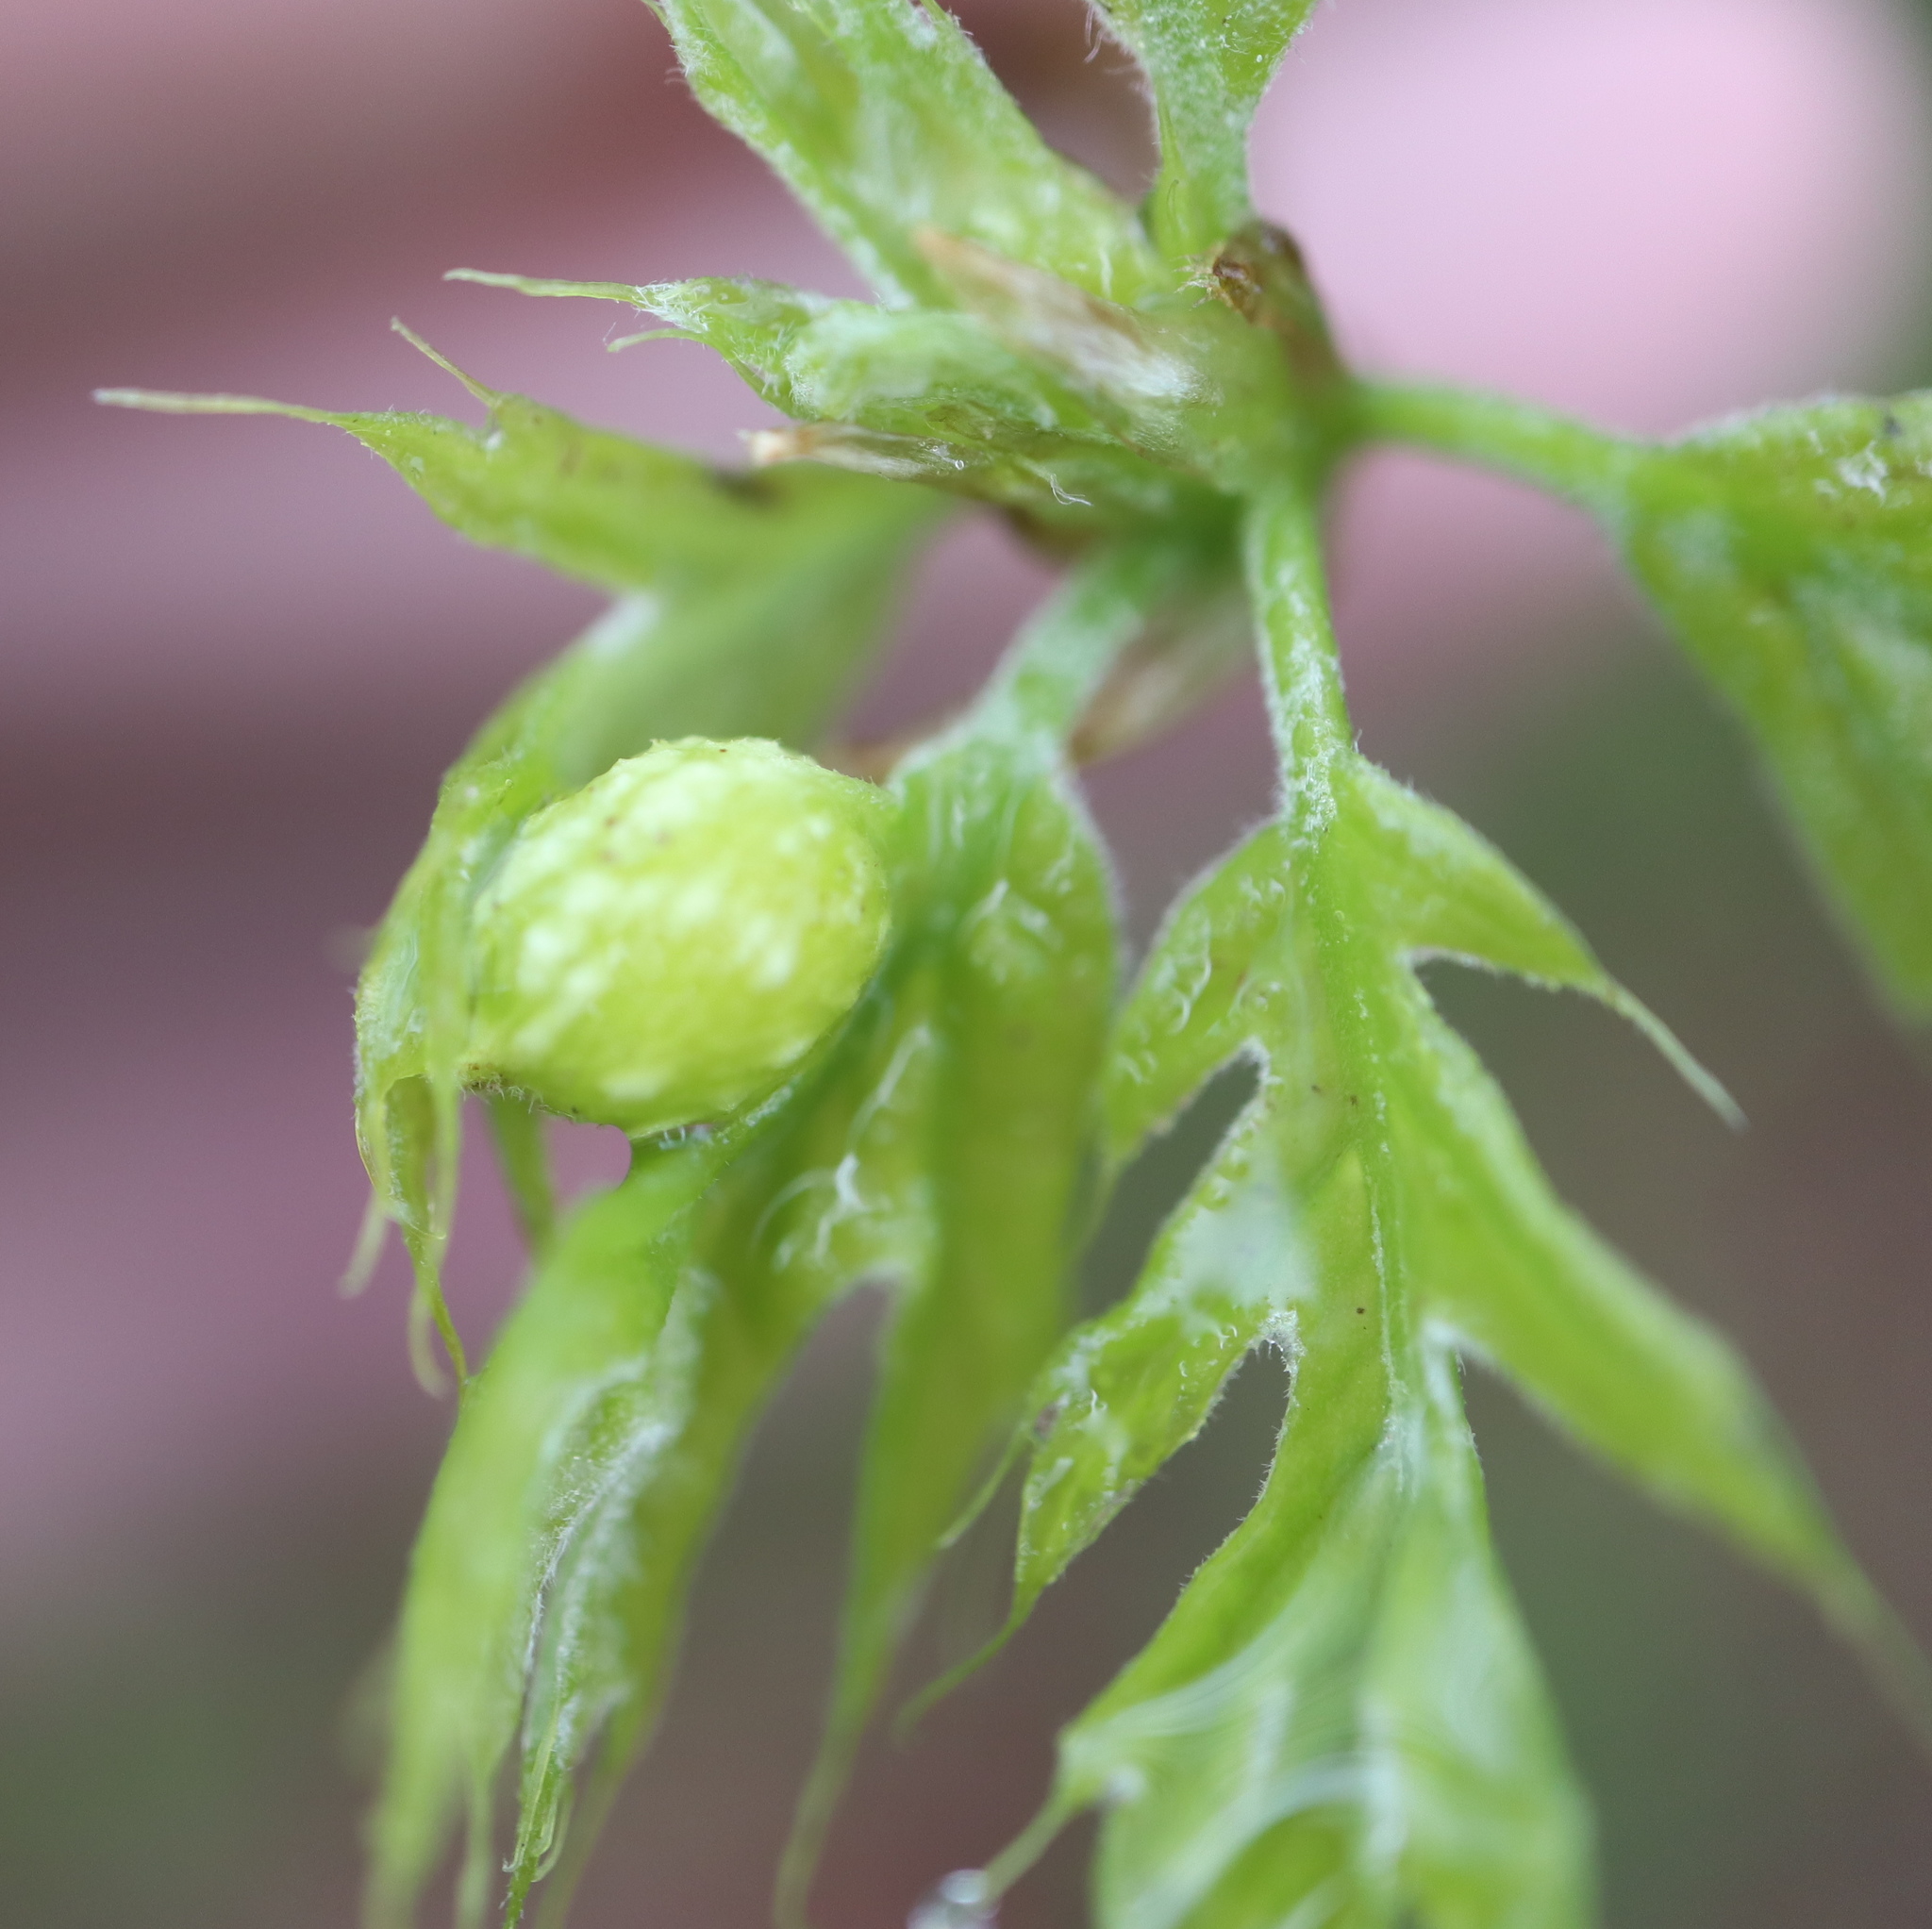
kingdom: Animalia
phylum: Arthropoda
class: Insecta
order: Hymenoptera
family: Cynipidae
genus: Dryocosmus
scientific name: Dryocosmus quercuspalustris
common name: Succulent oak gall wasp
